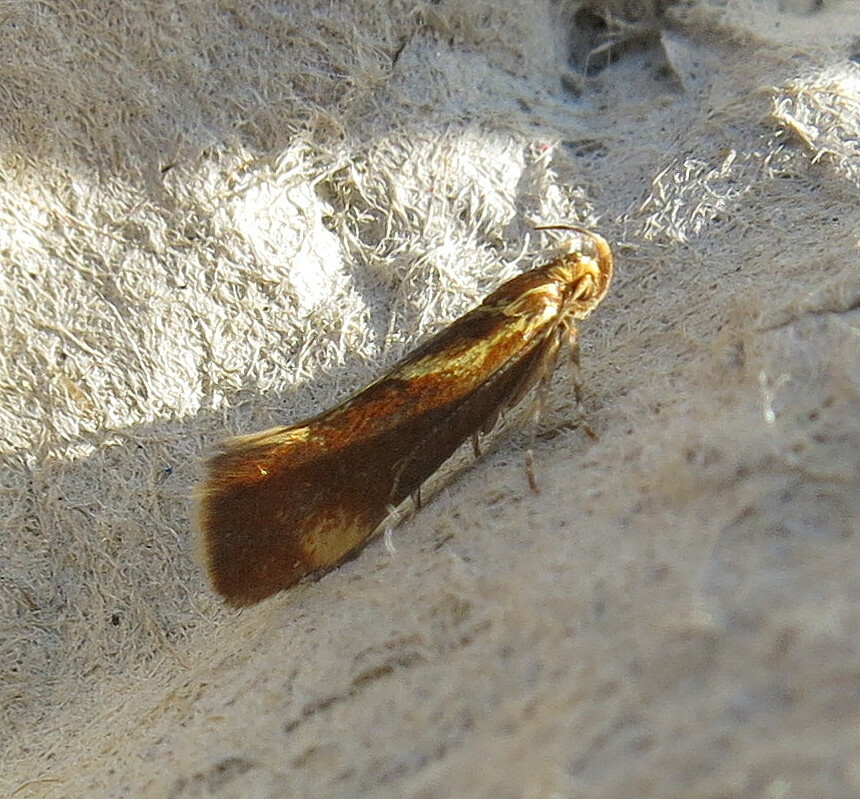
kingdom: Animalia
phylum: Arthropoda
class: Insecta
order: Lepidoptera
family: Oecophoridae
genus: Borkhausenia
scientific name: Borkhausenia italica
